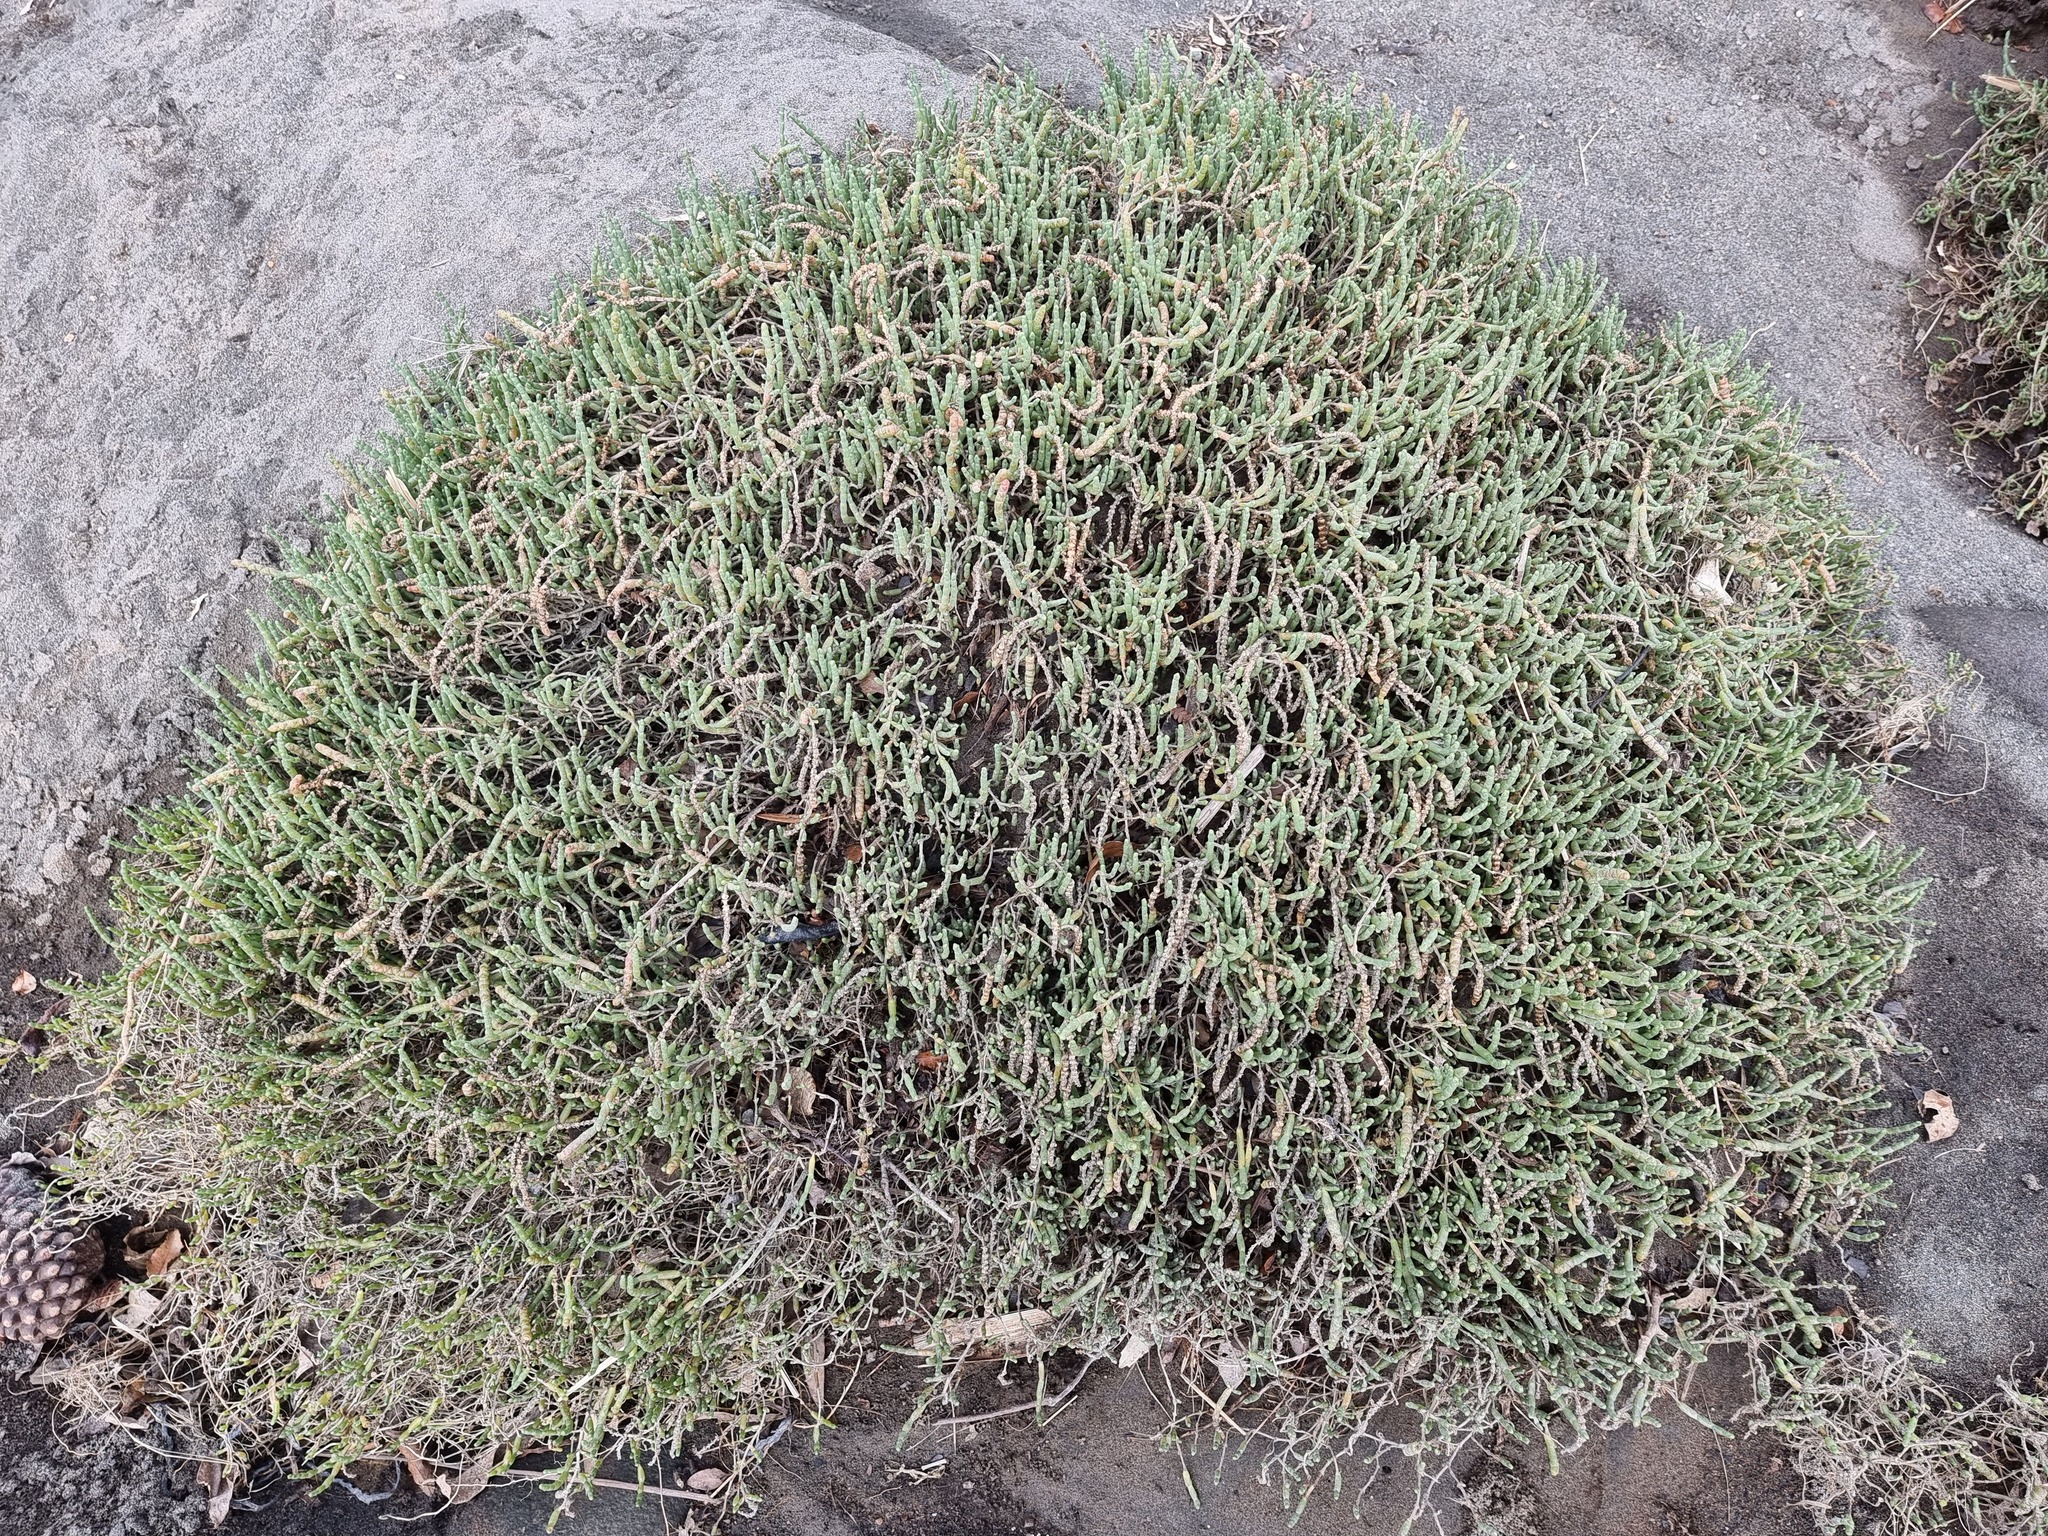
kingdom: Plantae
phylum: Tracheophyta
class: Magnoliopsida
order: Caryophyllales
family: Amaranthaceae
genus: Salicornia
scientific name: Salicornia quinqueflora
